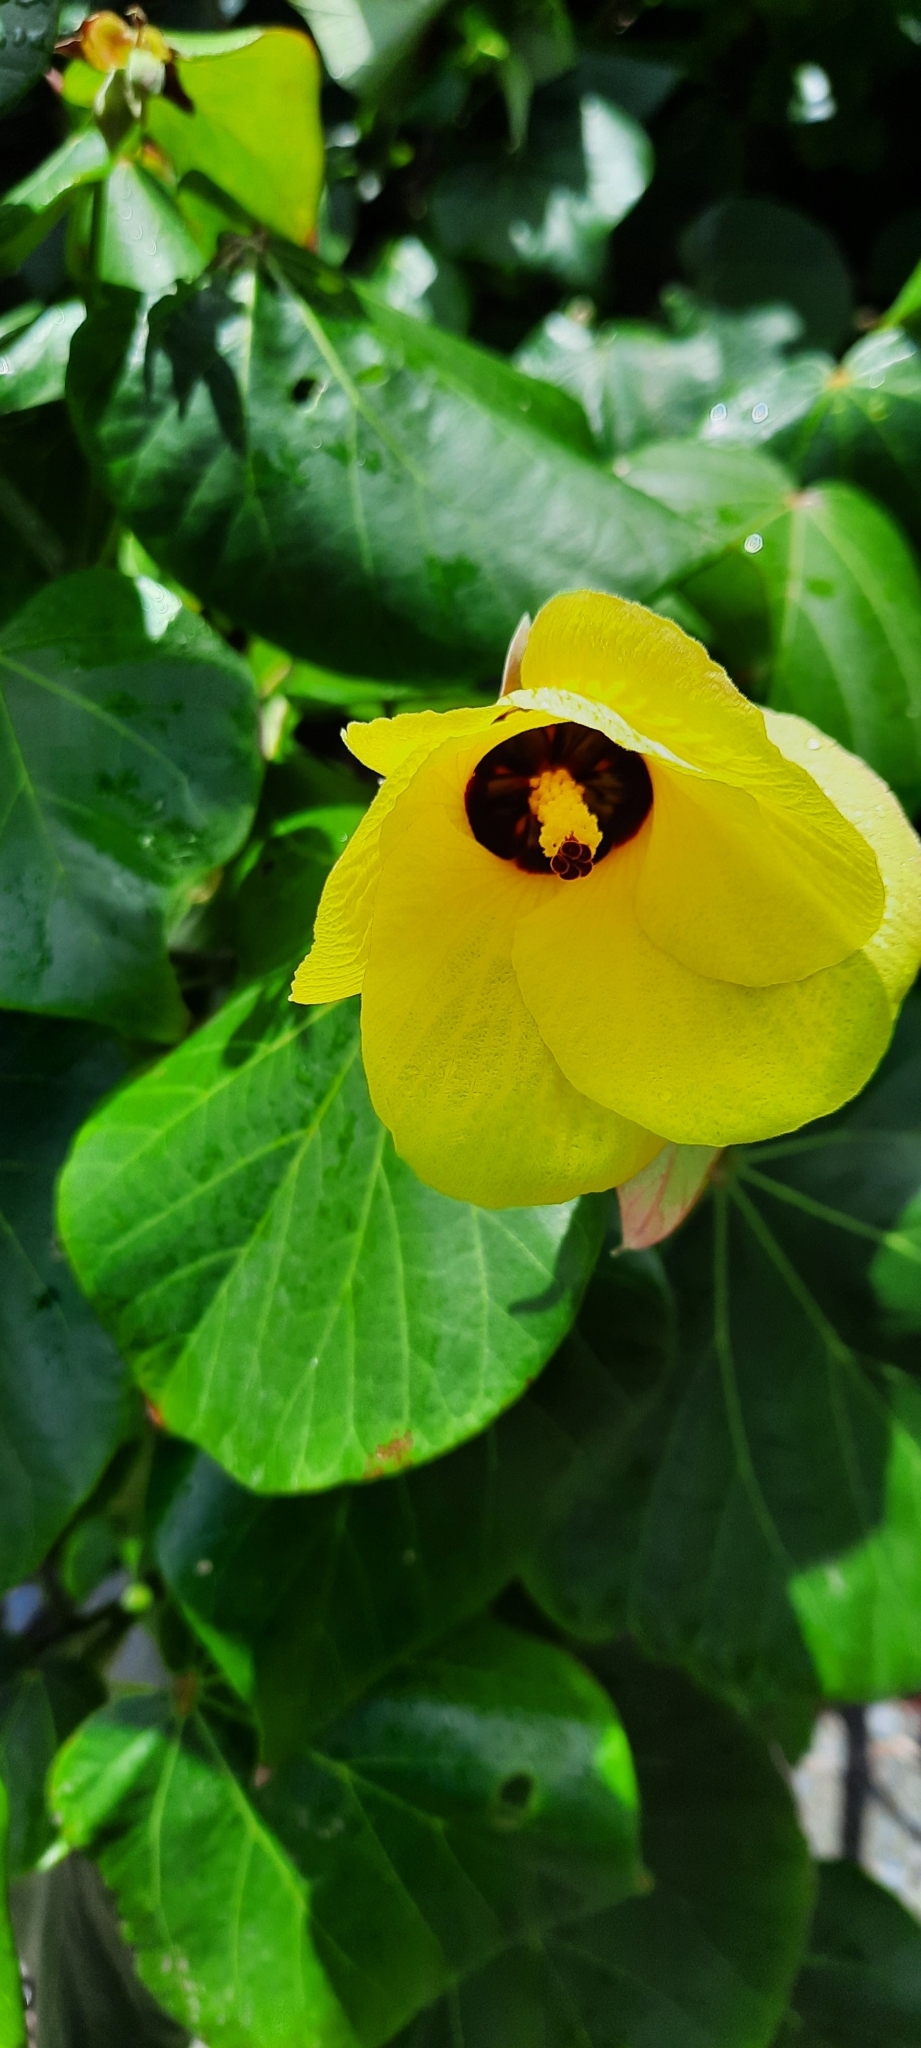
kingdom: Plantae
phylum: Tracheophyta
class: Magnoliopsida
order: Malvales
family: Malvaceae
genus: Talipariti
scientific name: Talipariti tiliaceum
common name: Sea hibiscus
